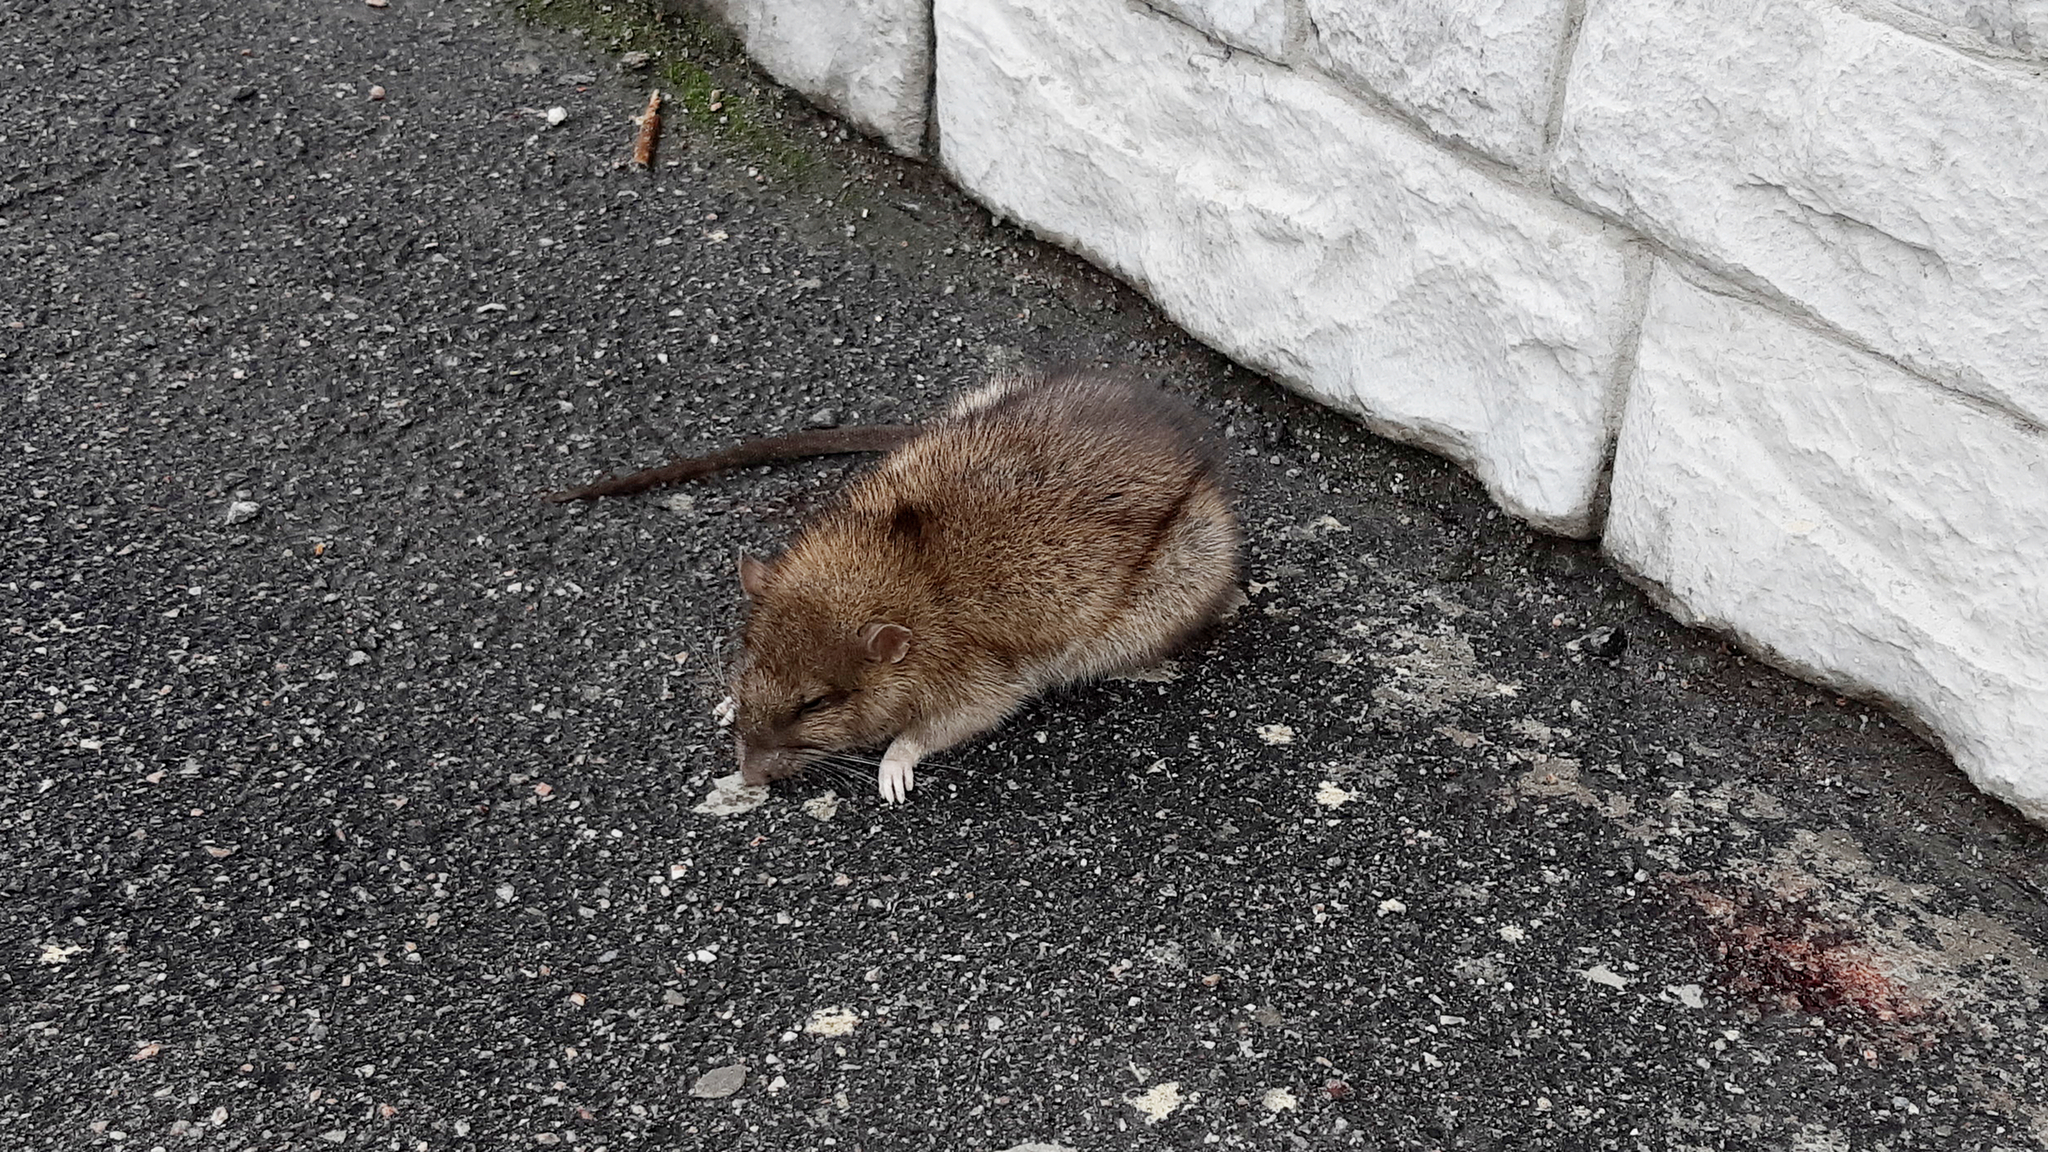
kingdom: Animalia
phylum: Chordata
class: Mammalia
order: Rodentia
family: Muridae
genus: Rattus
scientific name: Rattus norvegicus
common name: Brown rat
